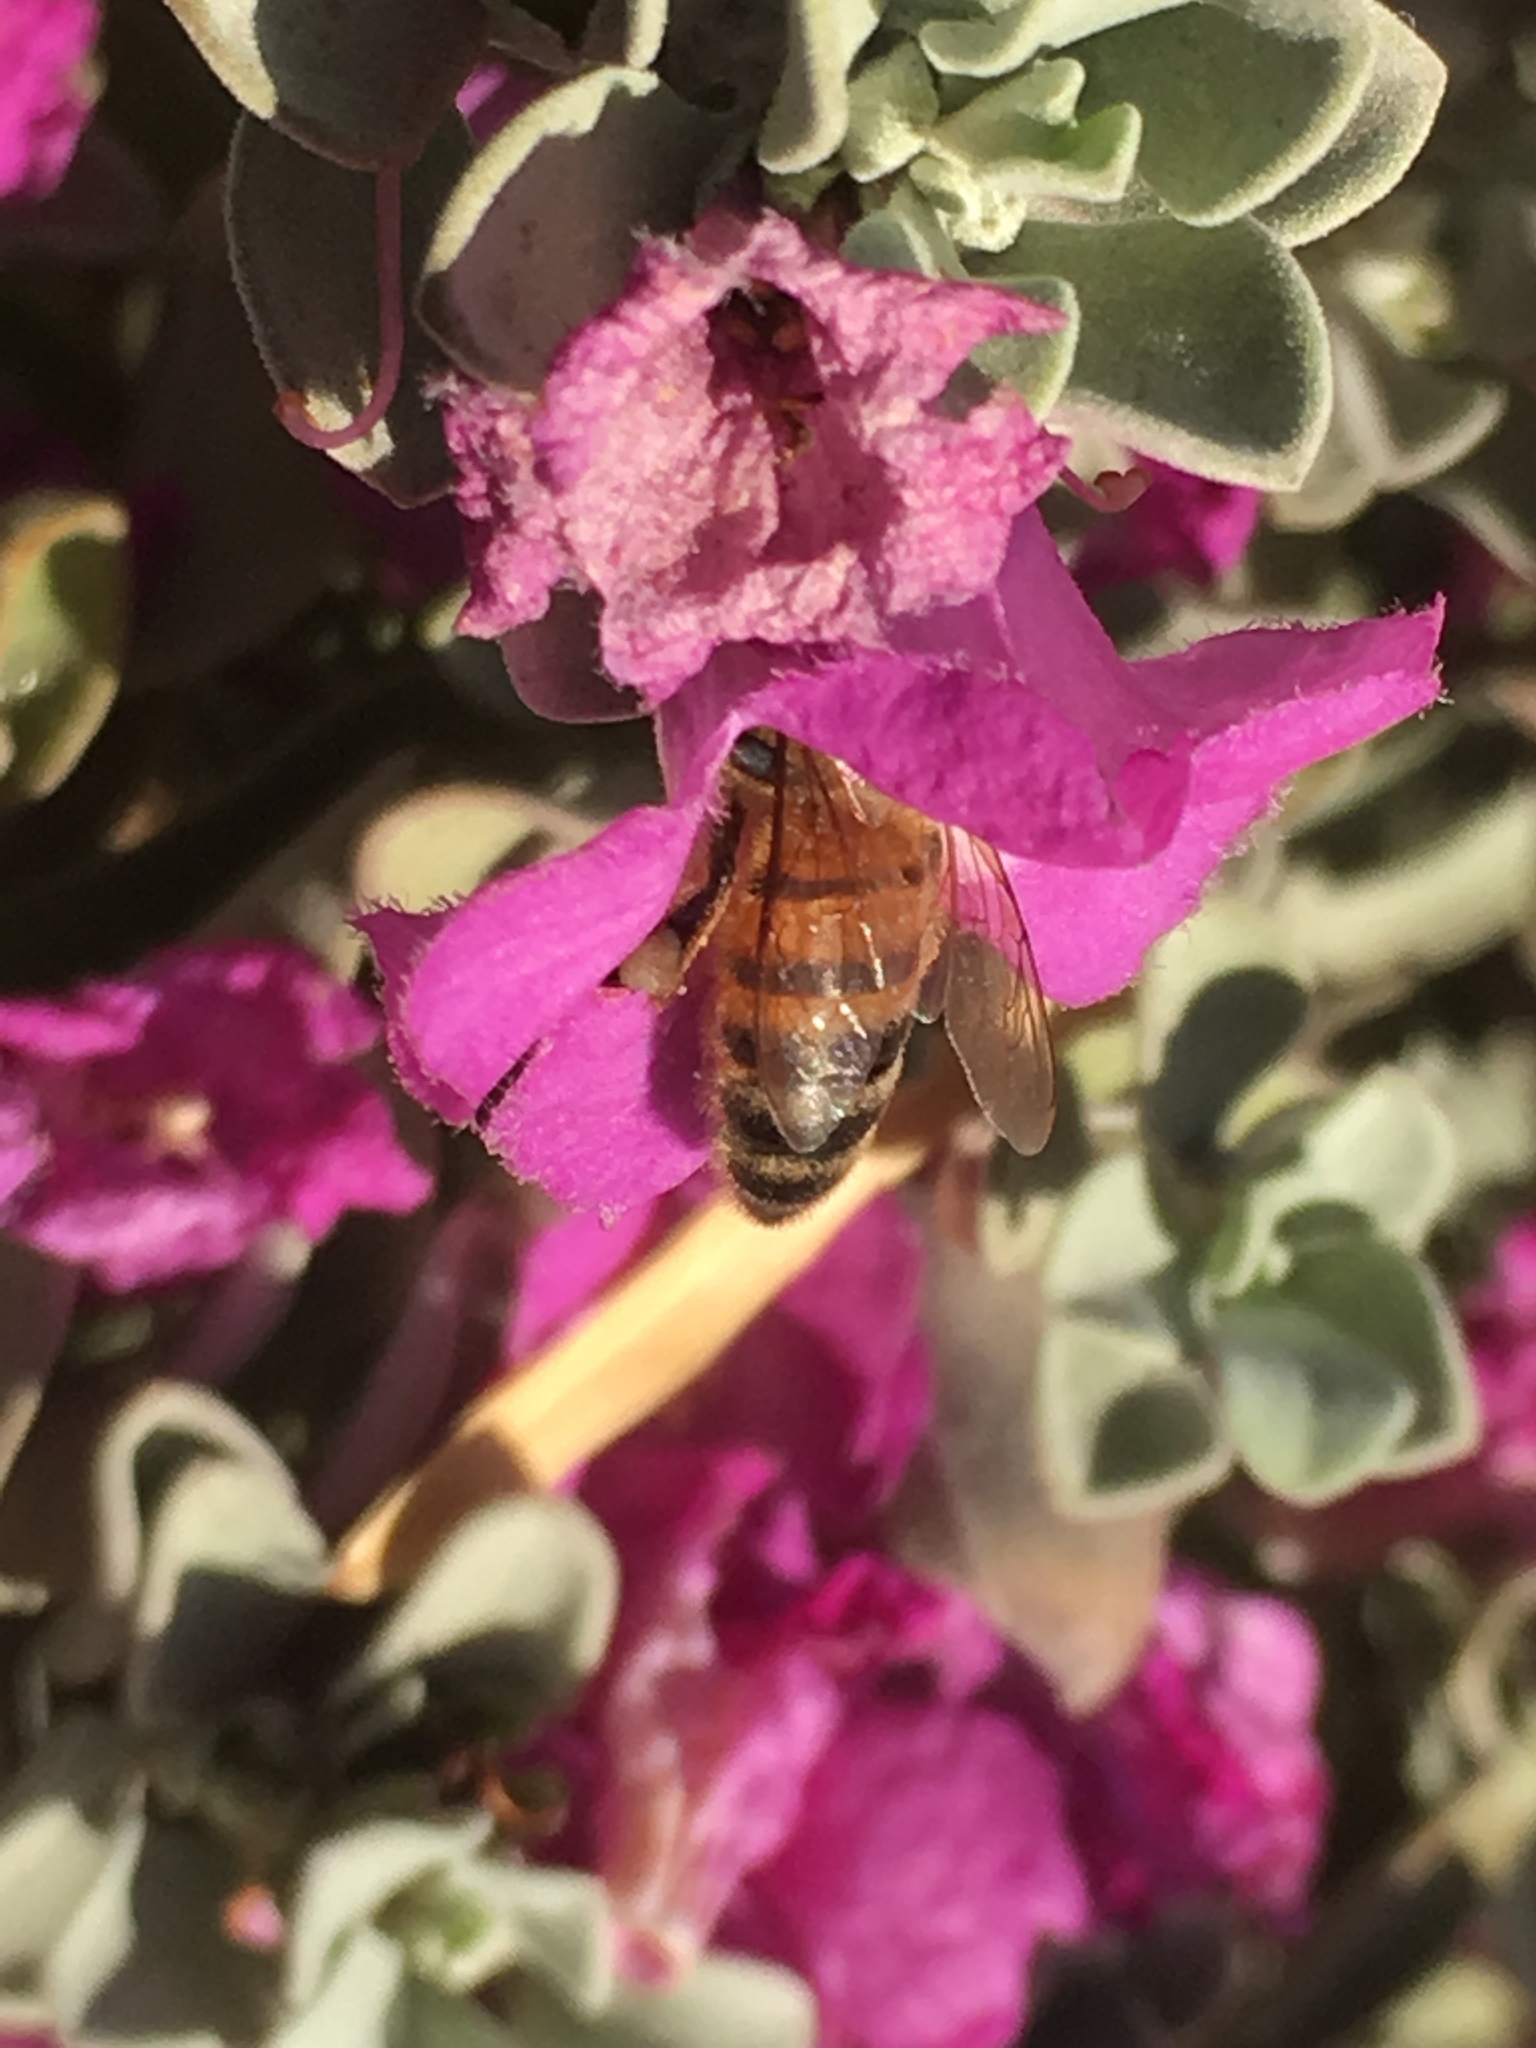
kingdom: Animalia
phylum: Arthropoda
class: Insecta
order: Hymenoptera
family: Apidae
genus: Apis
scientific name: Apis mellifera
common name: Honey bee
